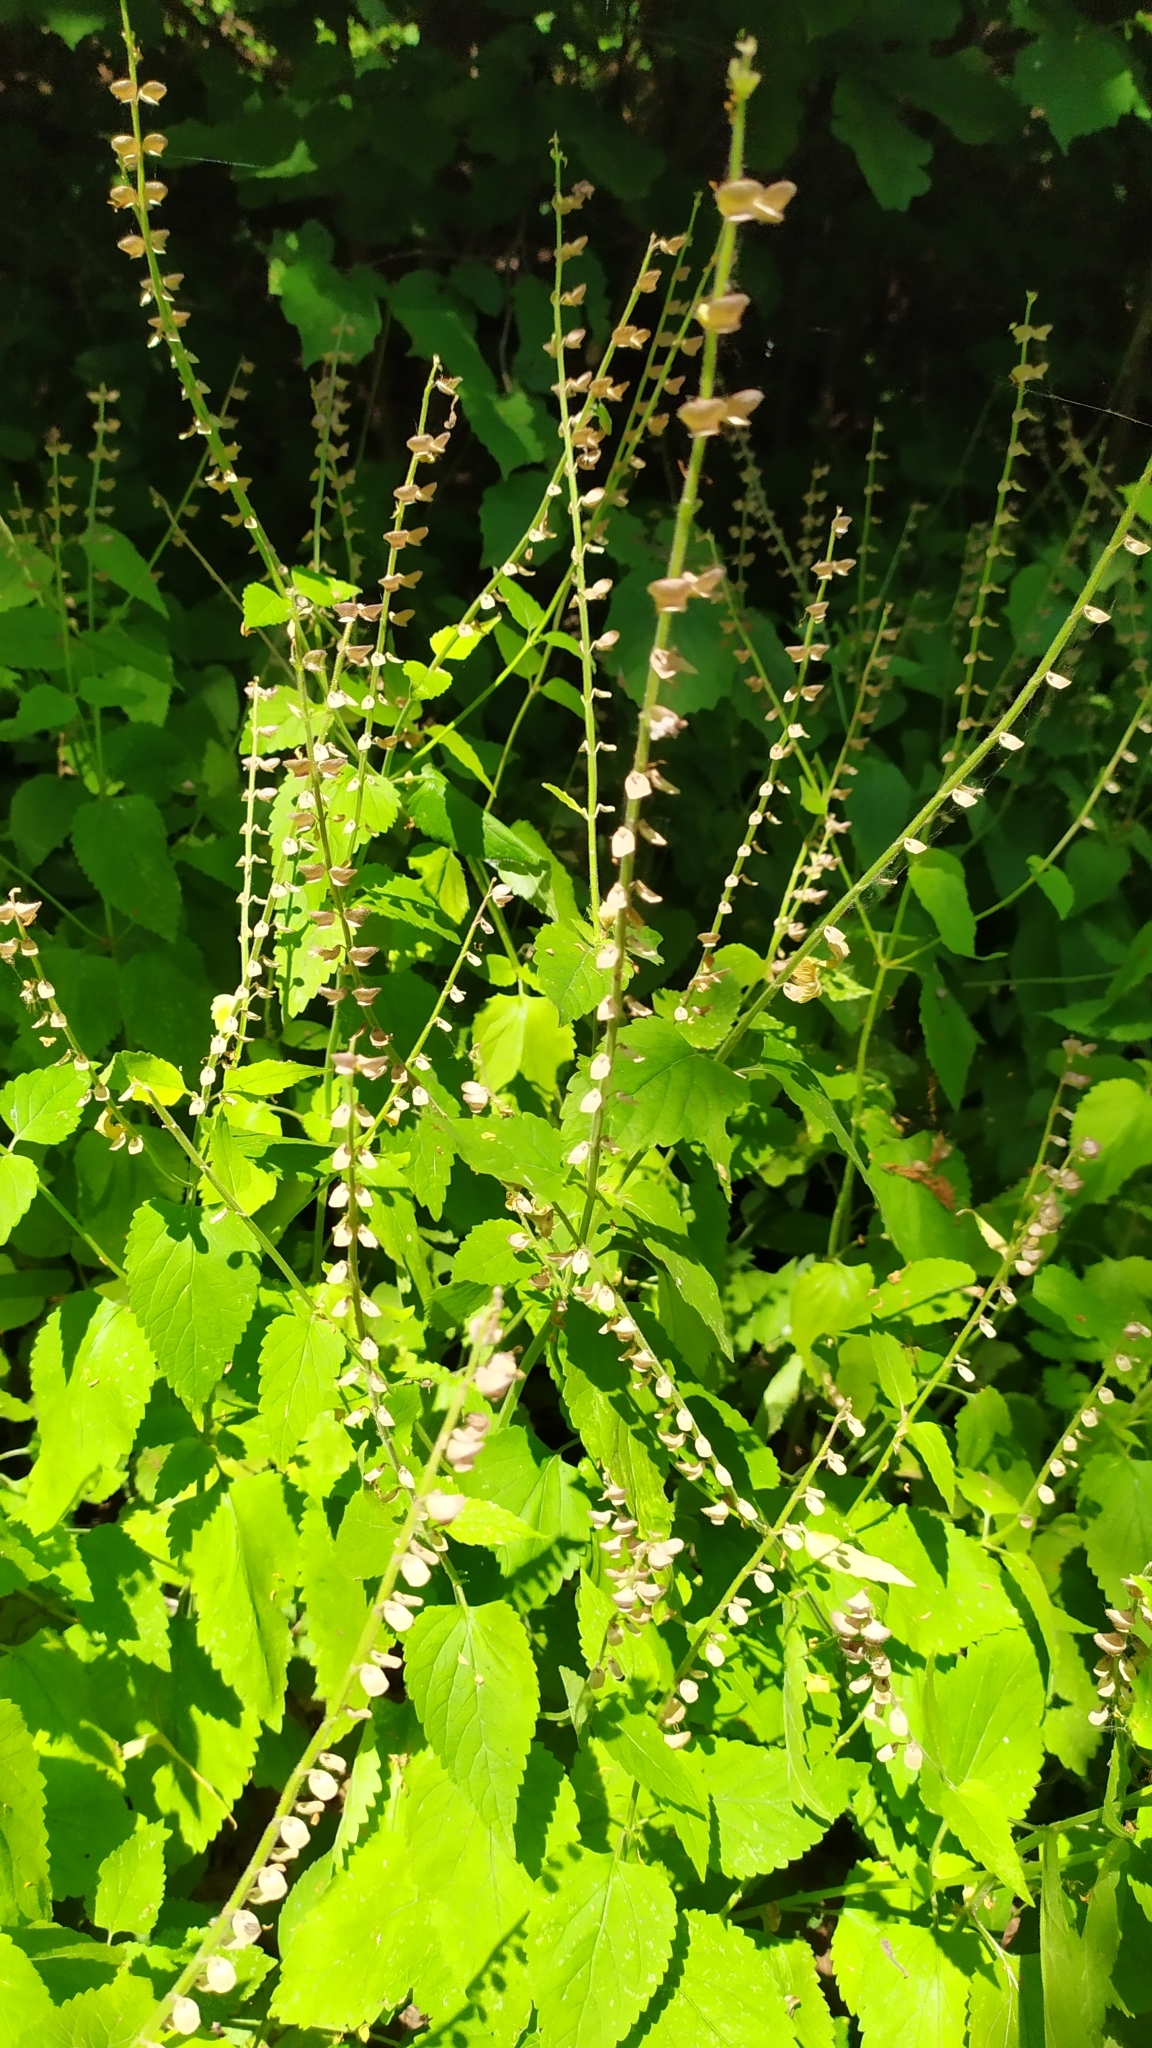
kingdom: Plantae
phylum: Tracheophyta
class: Magnoliopsida
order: Lamiales
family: Lamiaceae
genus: Scutellaria
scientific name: Scutellaria altissima
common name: Somerset skullcap
